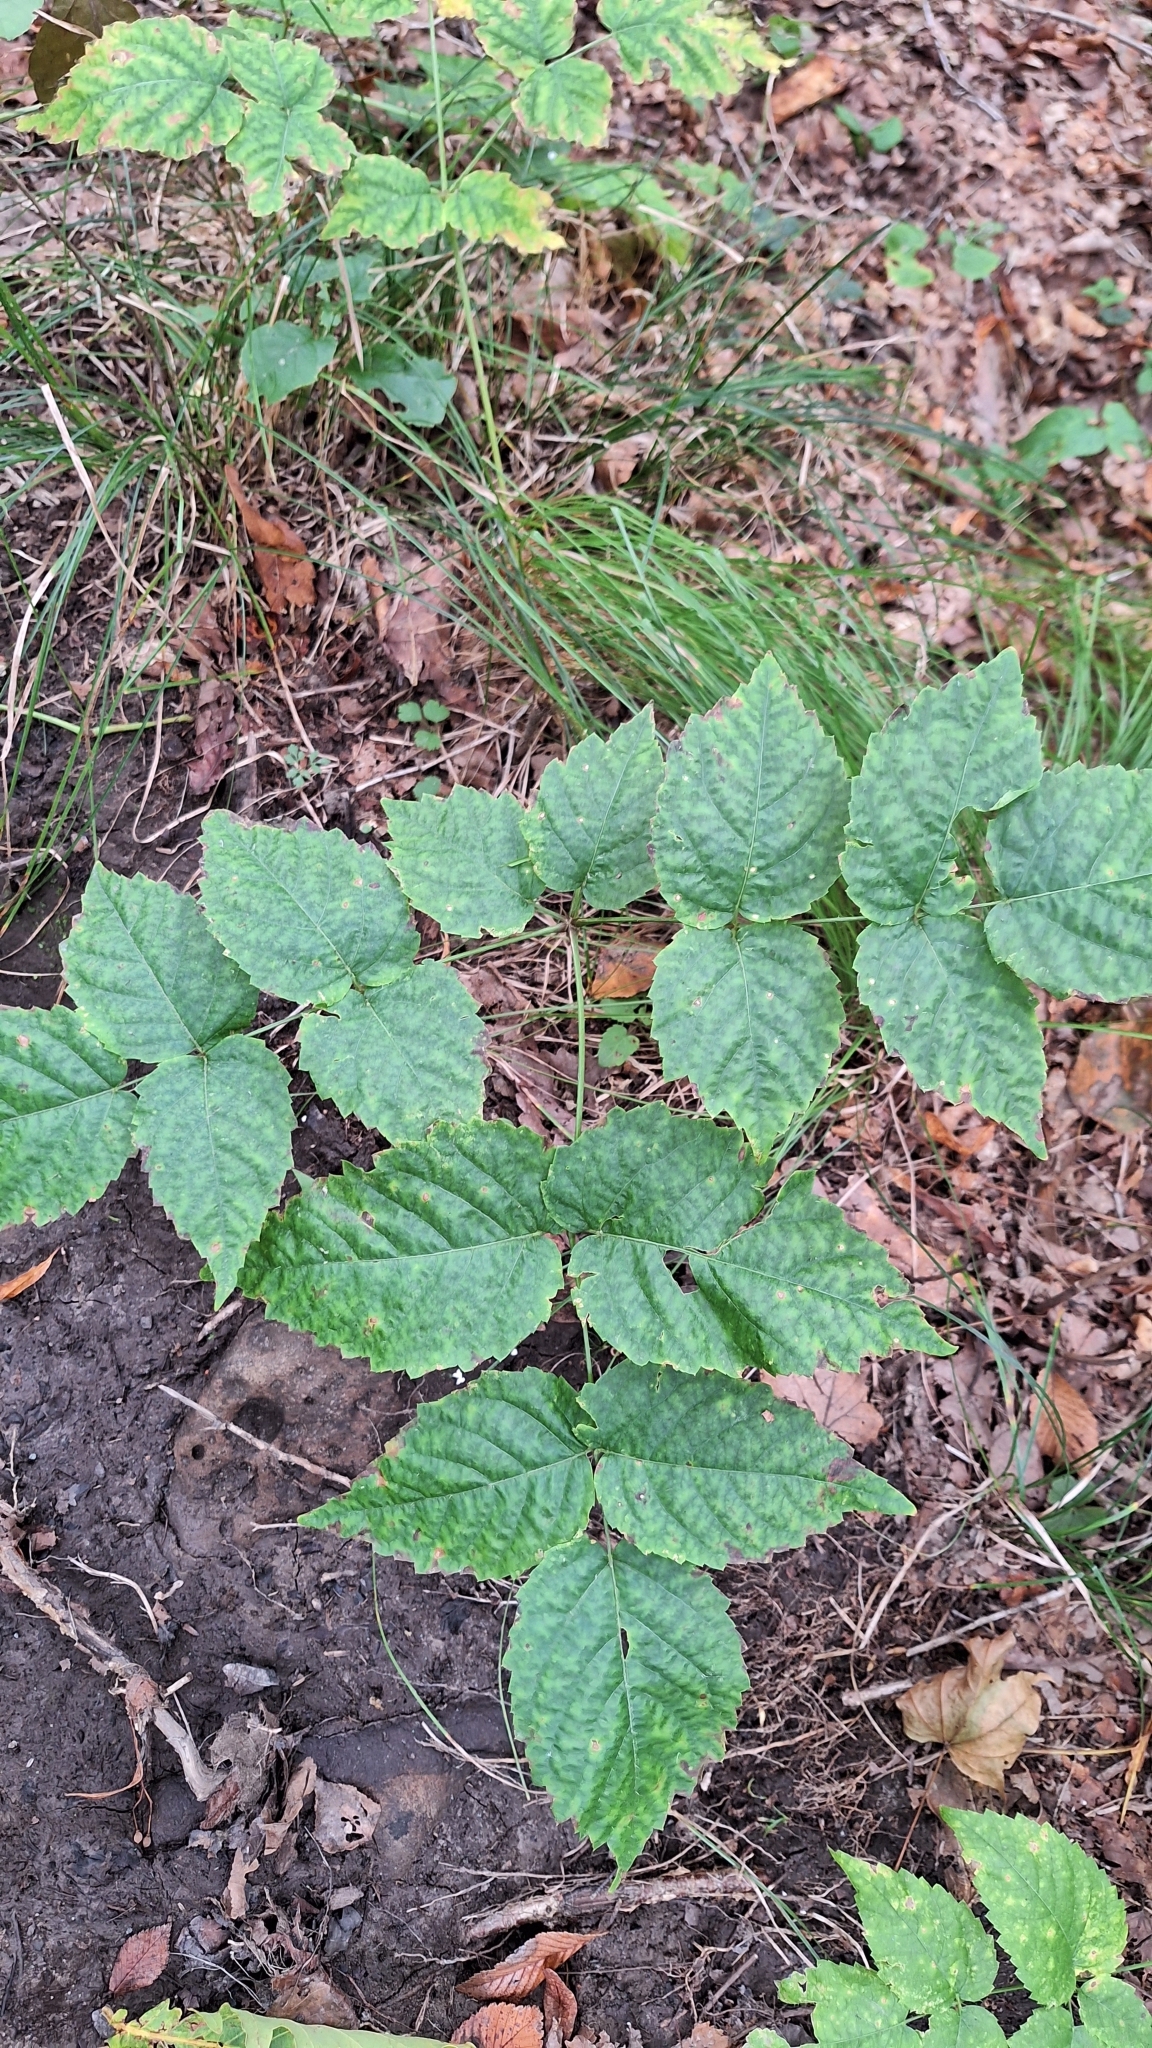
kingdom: Plantae
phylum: Tracheophyta
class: Magnoliopsida
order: Apiales
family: Araliaceae
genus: Aralia
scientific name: Aralia elata
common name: Japanese angelica-tree
